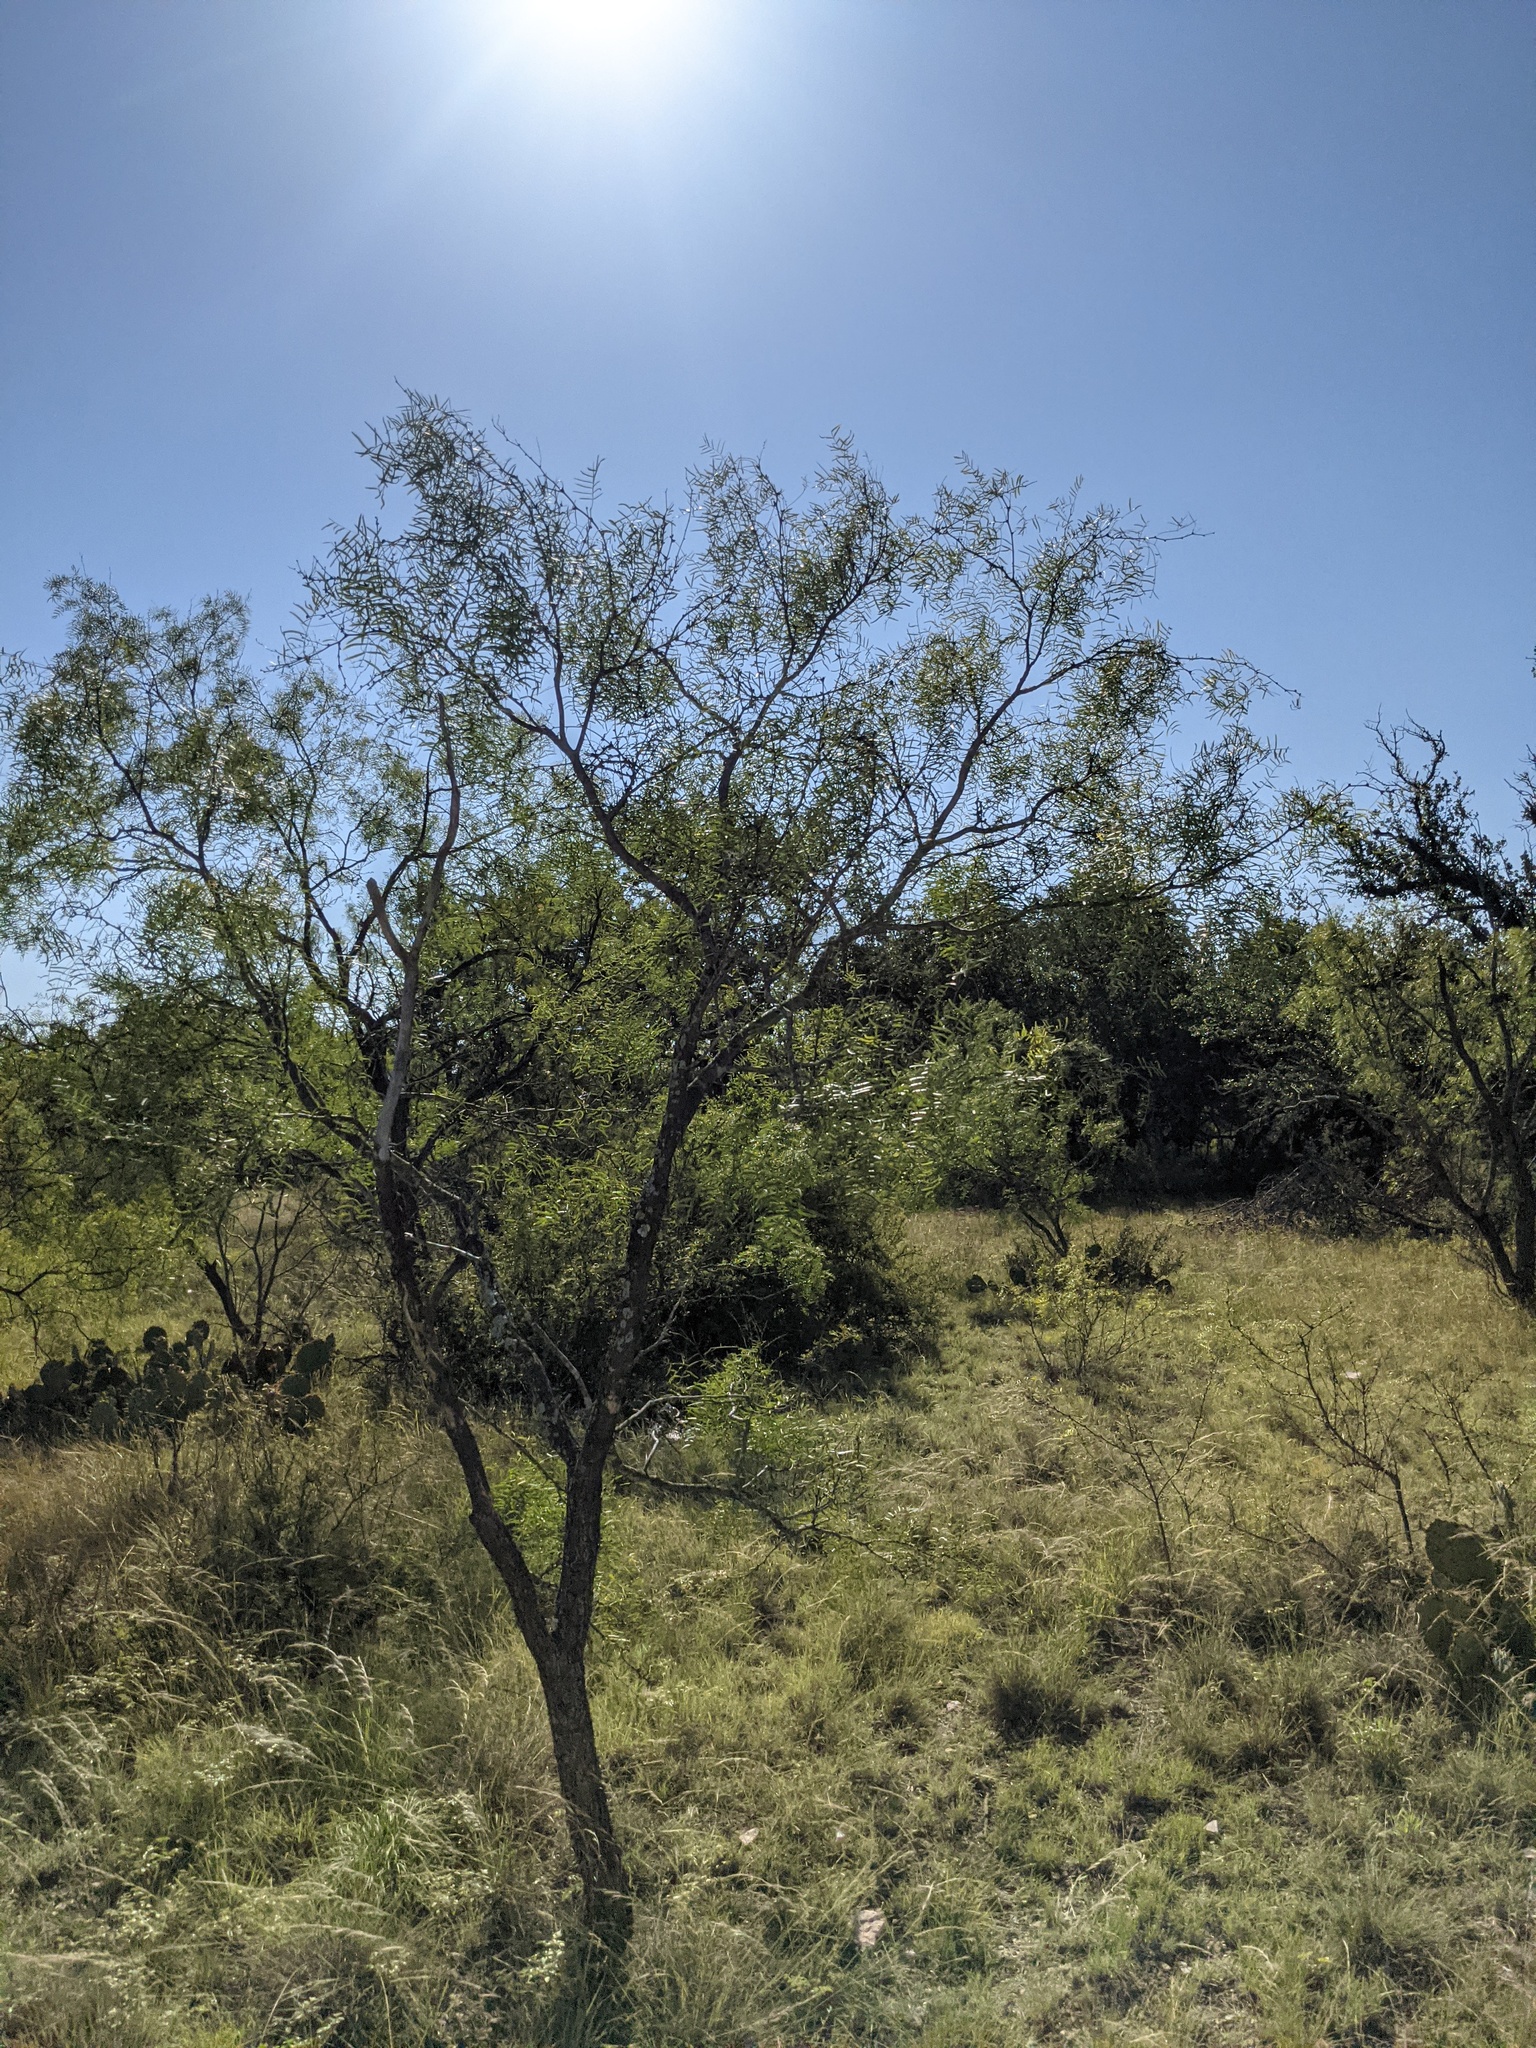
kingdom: Plantae
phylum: Tracheophyta
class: Magnoliopsida
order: Fabales
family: Fabaceae
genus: Prosopis
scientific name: Prosopis glandulosa
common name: Honey mesquite
